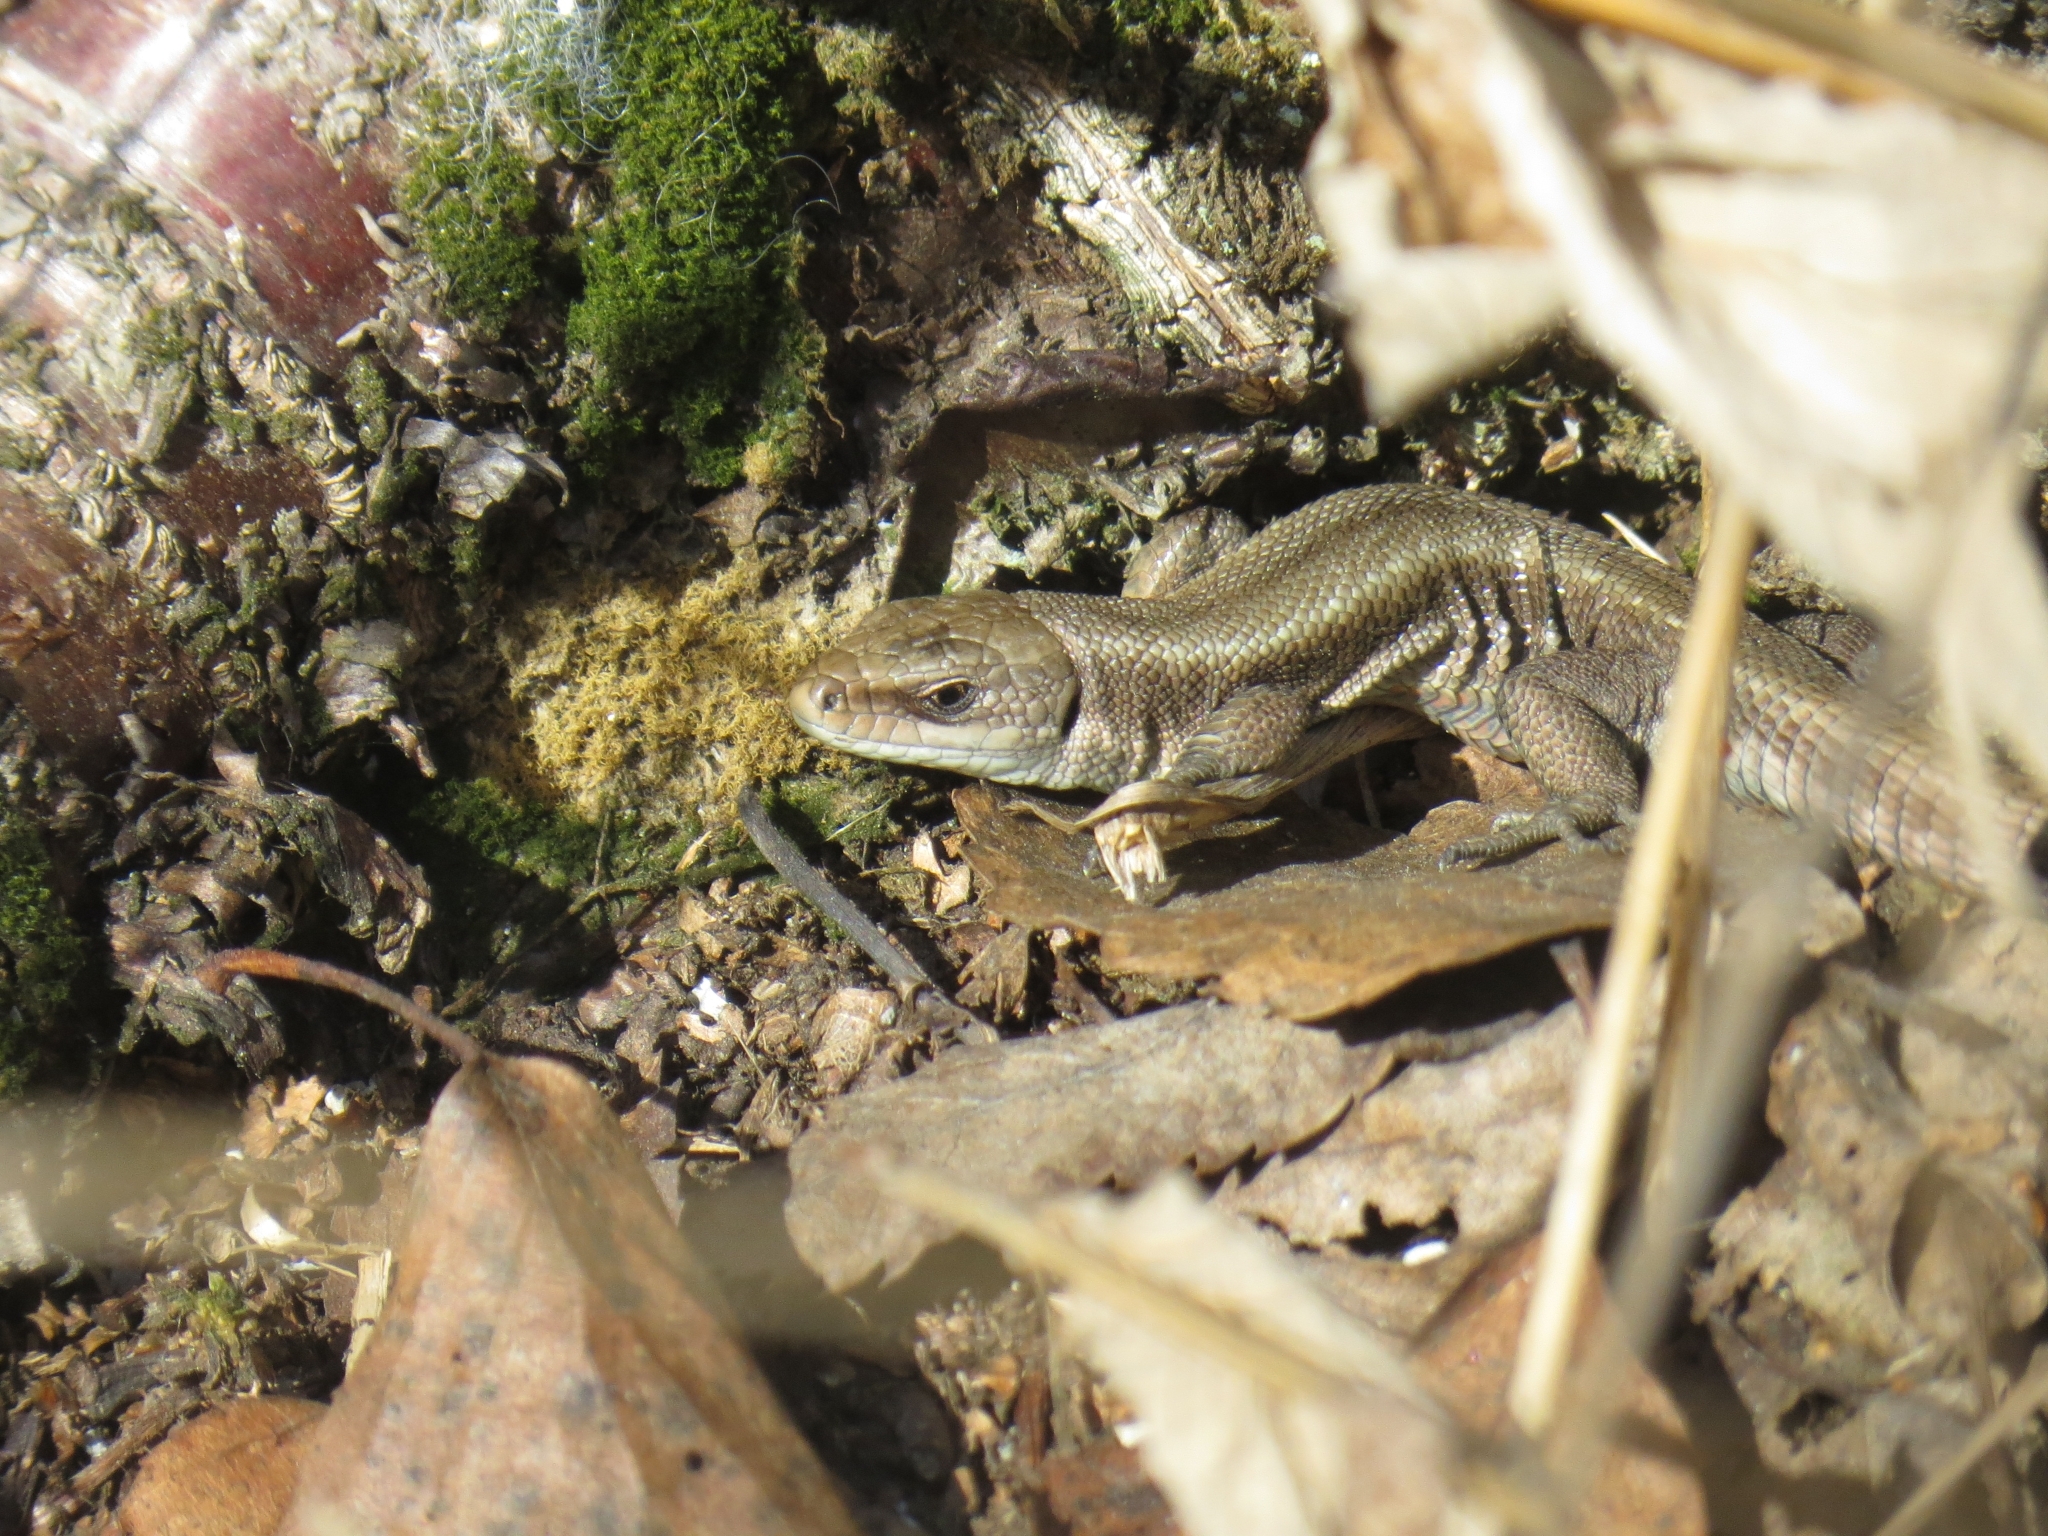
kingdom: Animalia
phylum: Chordata
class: Squamata
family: Lacertidae
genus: Zootoca
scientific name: Zootoca vivipara
